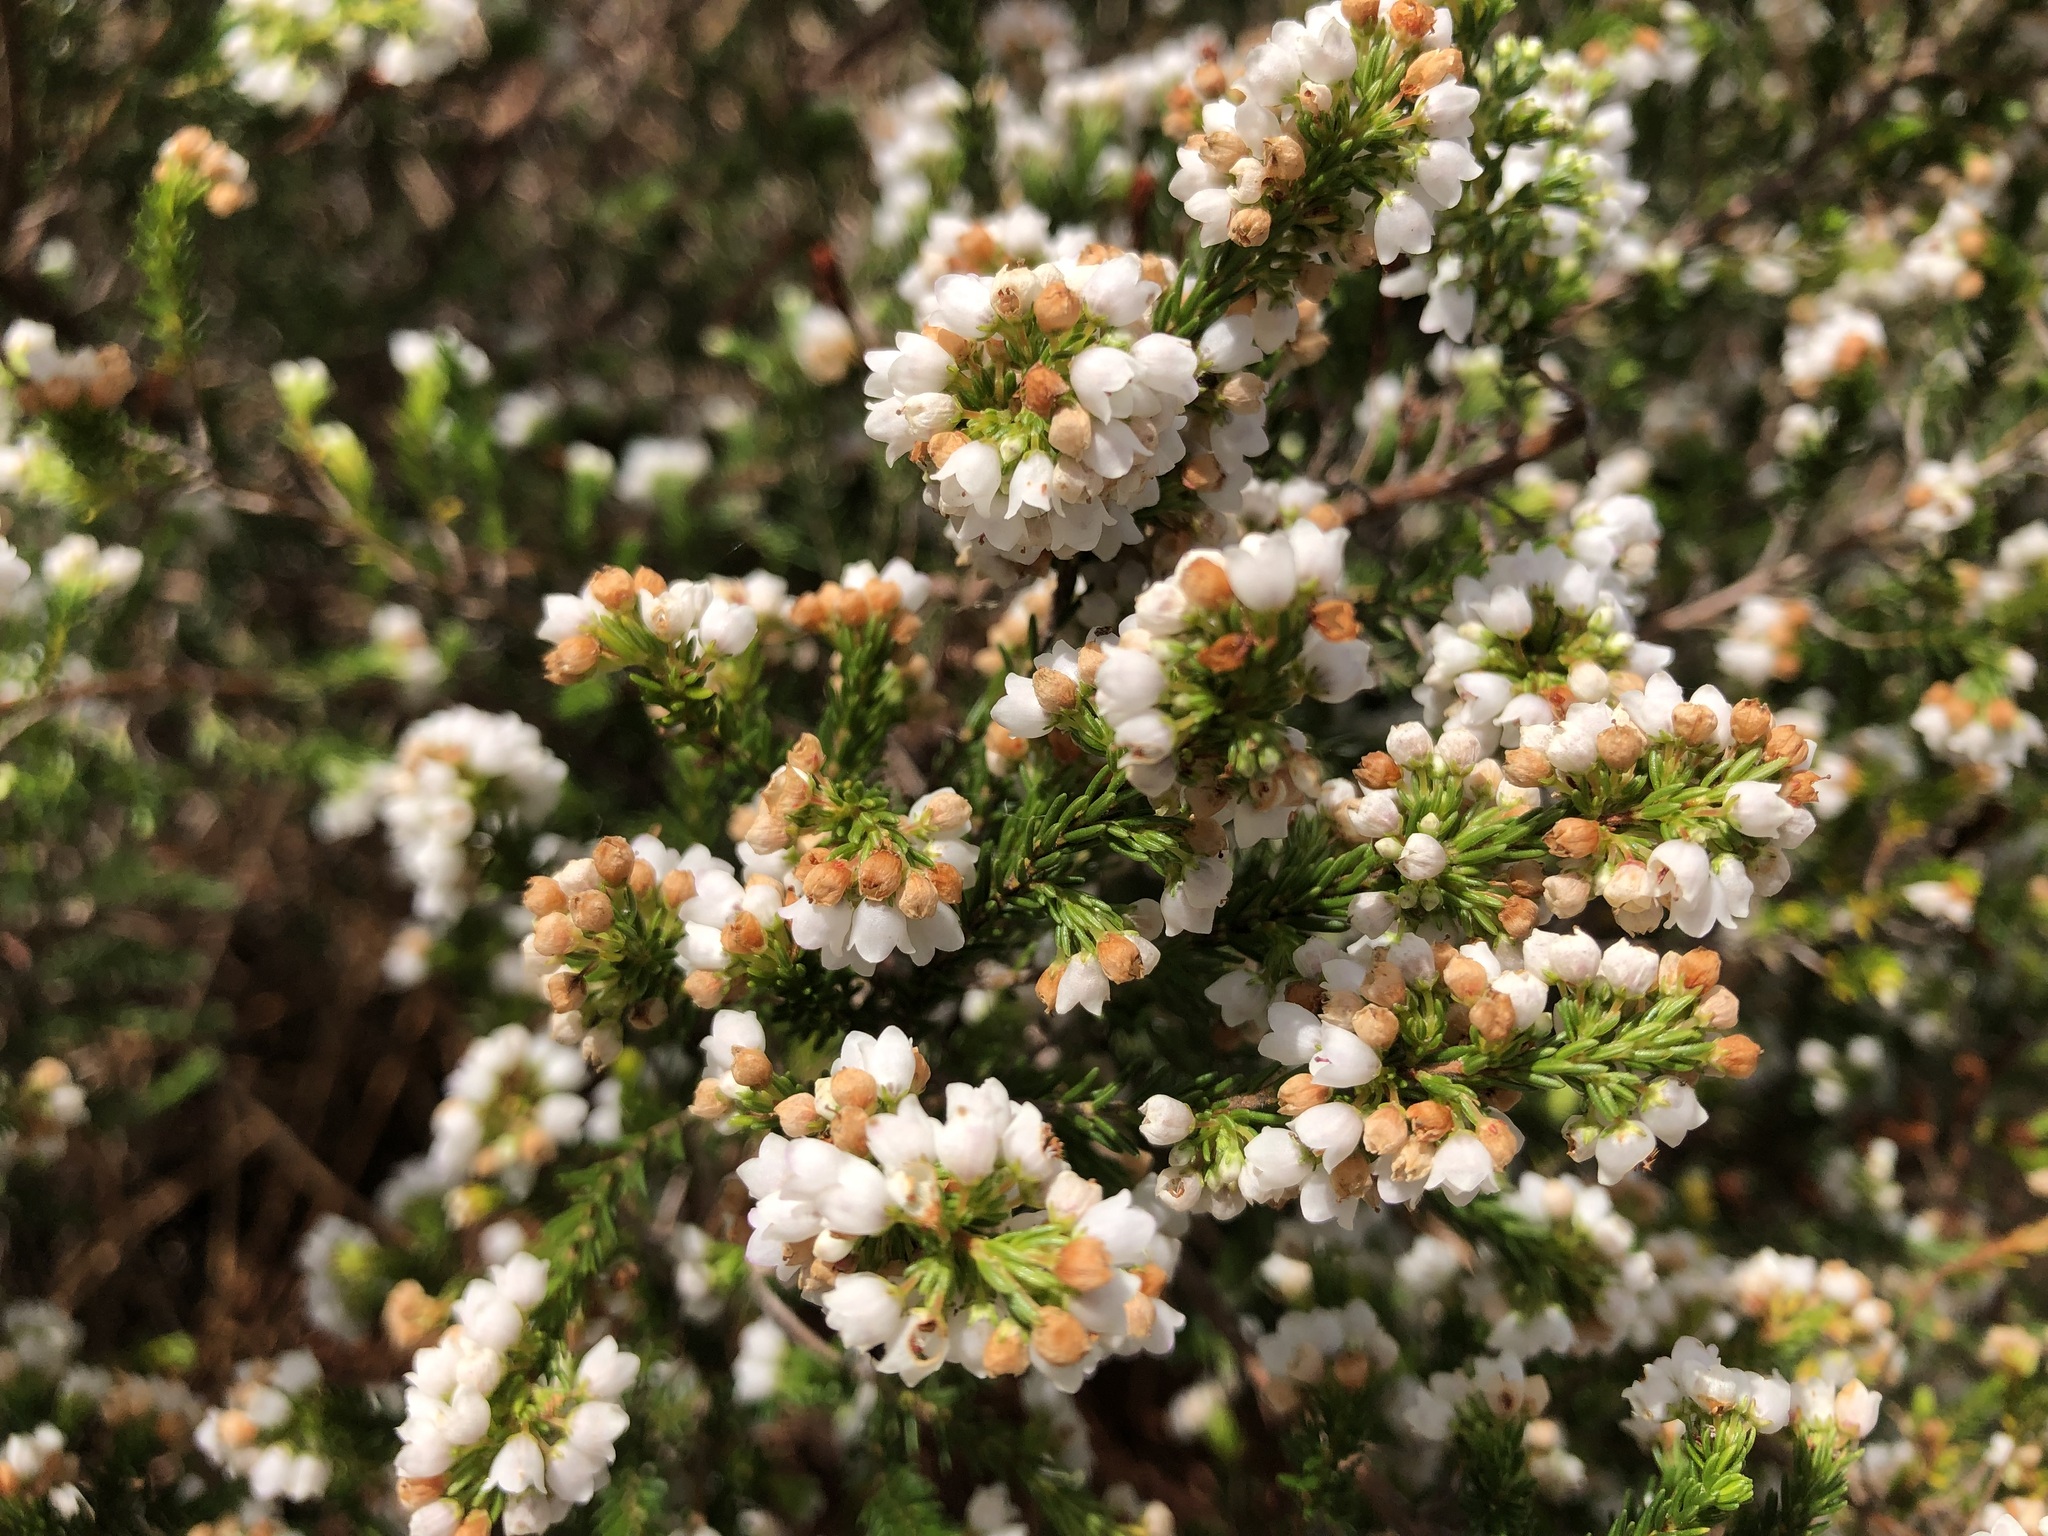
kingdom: Plantae
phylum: Tracheophyta
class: Magnoliopsida
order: Ericales
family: Ericaceae
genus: Erica
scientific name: Erica subdivaricata
